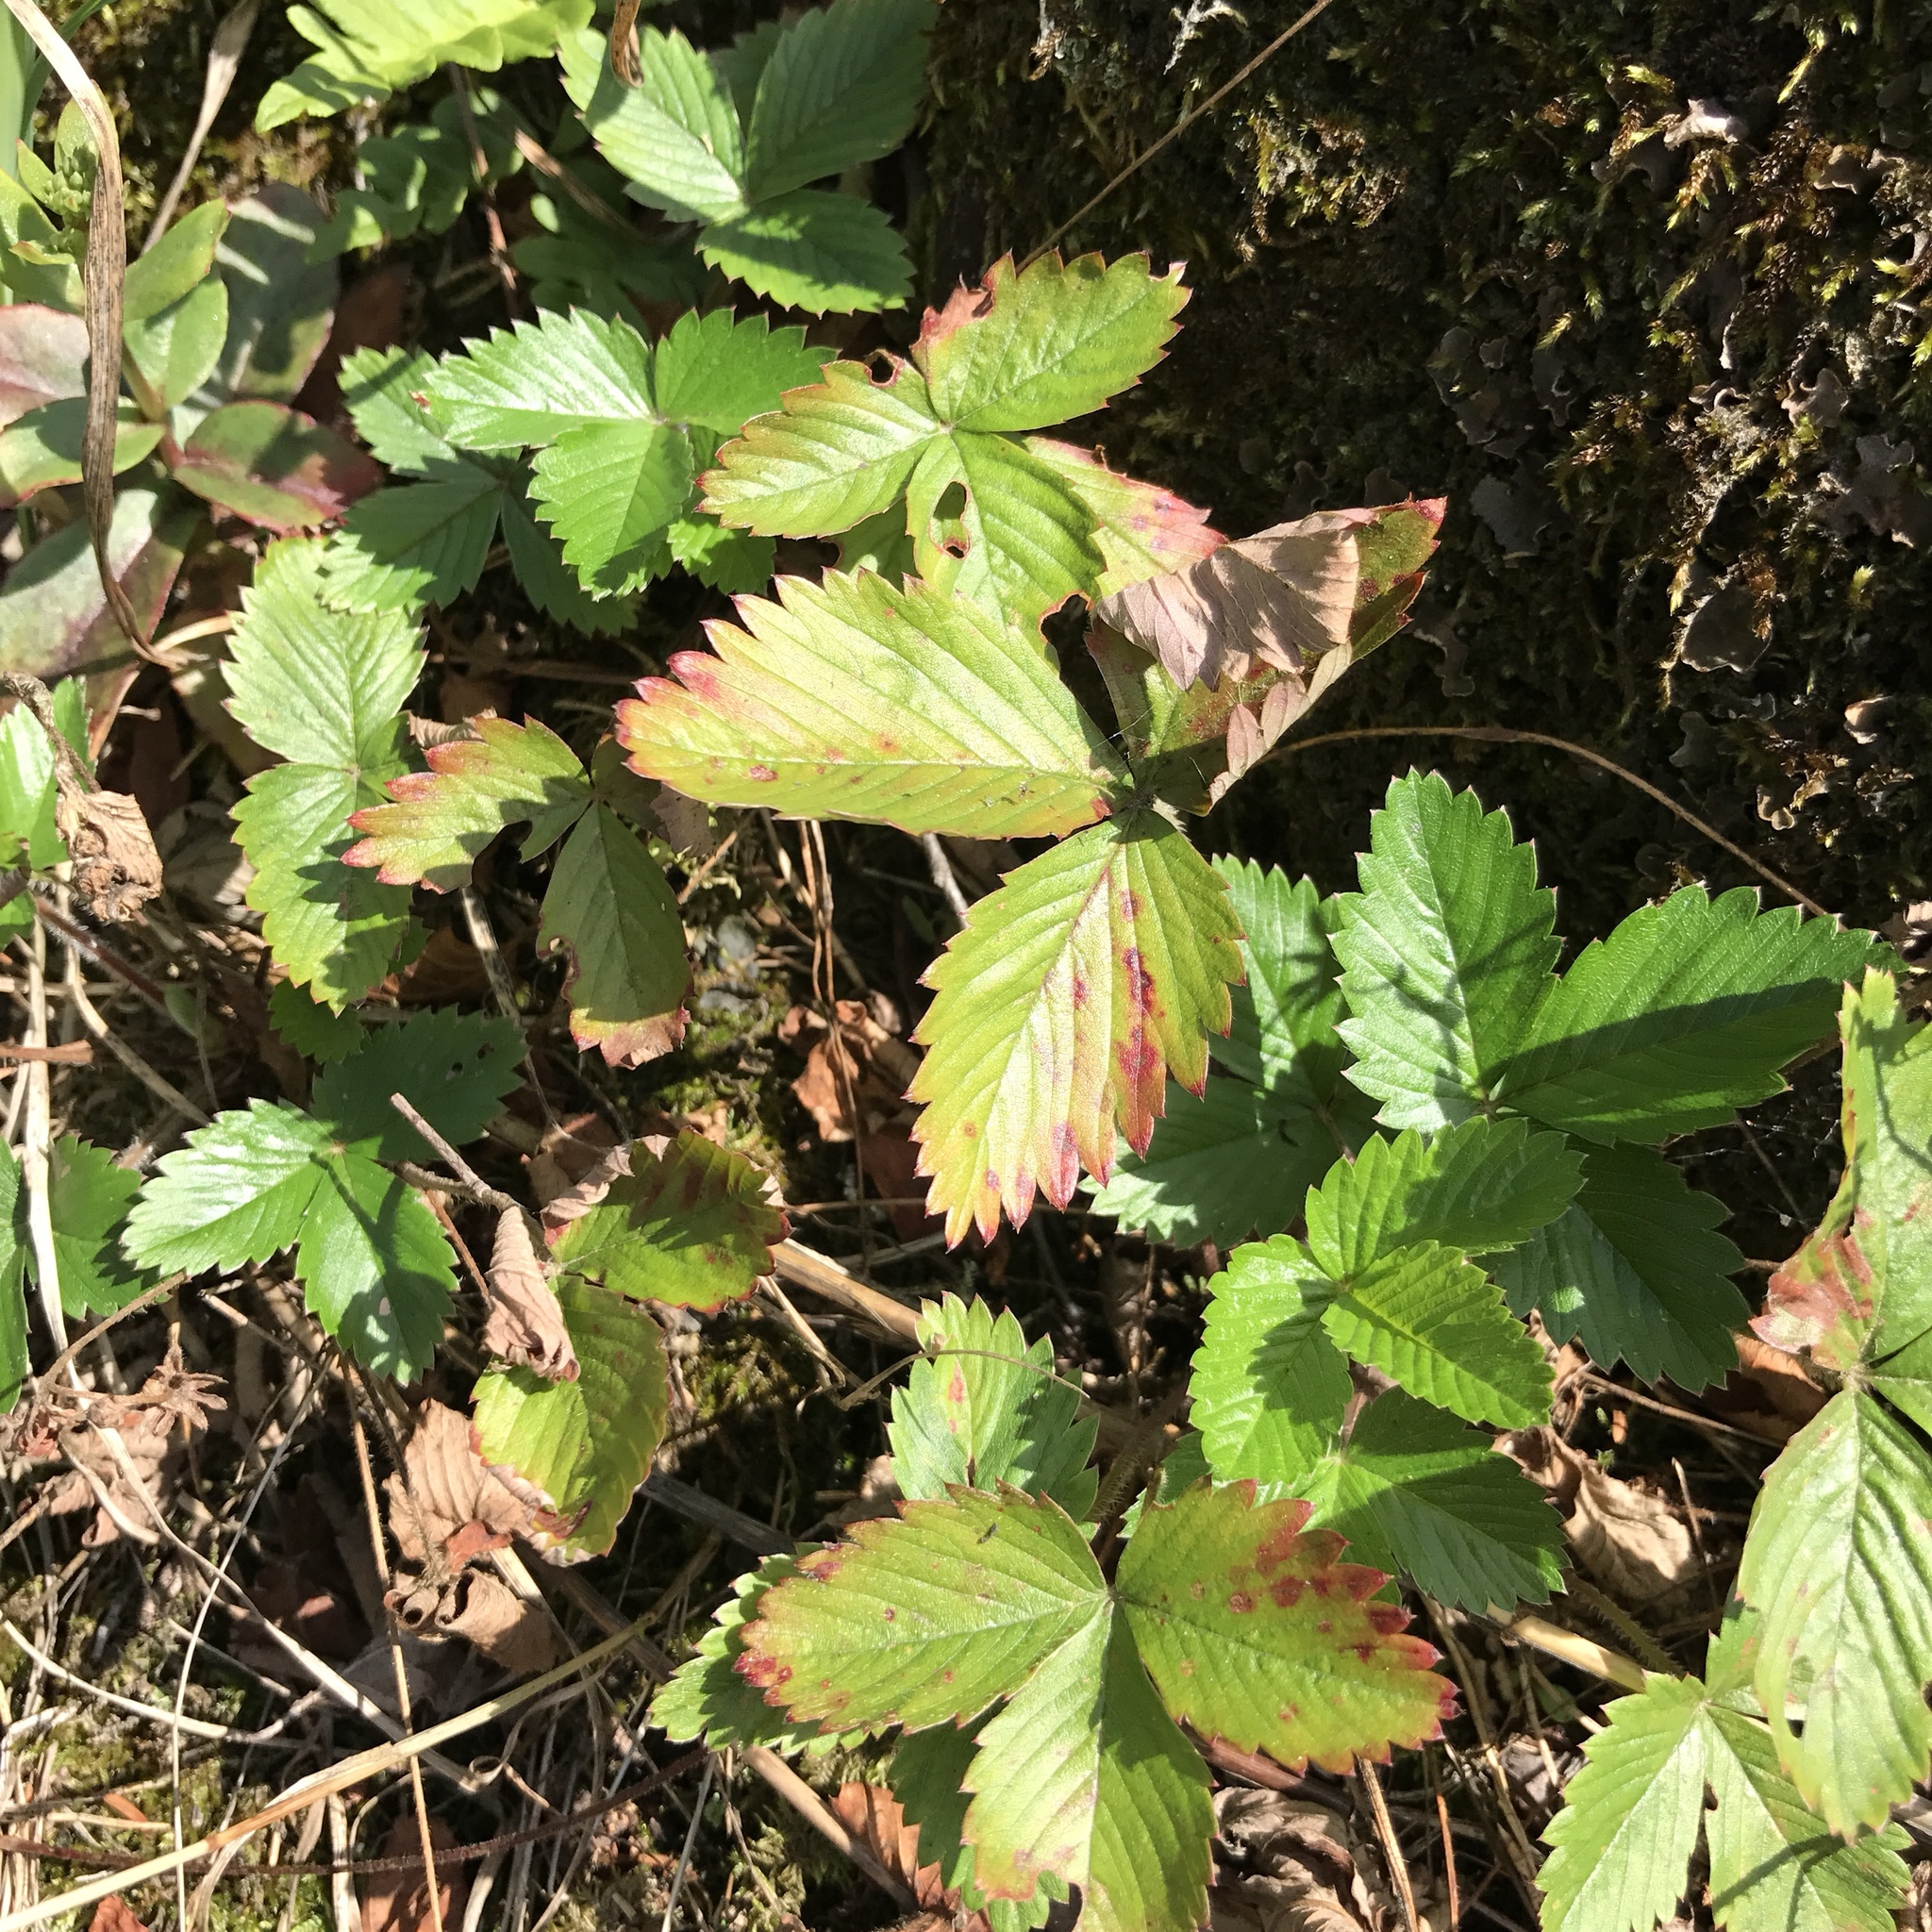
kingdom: Plantae
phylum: Tracheophyta
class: Magnoliopsida
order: Rosales
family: Rosaceae
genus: Fragaria
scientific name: Fragaria vesca
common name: Wild strawberry
